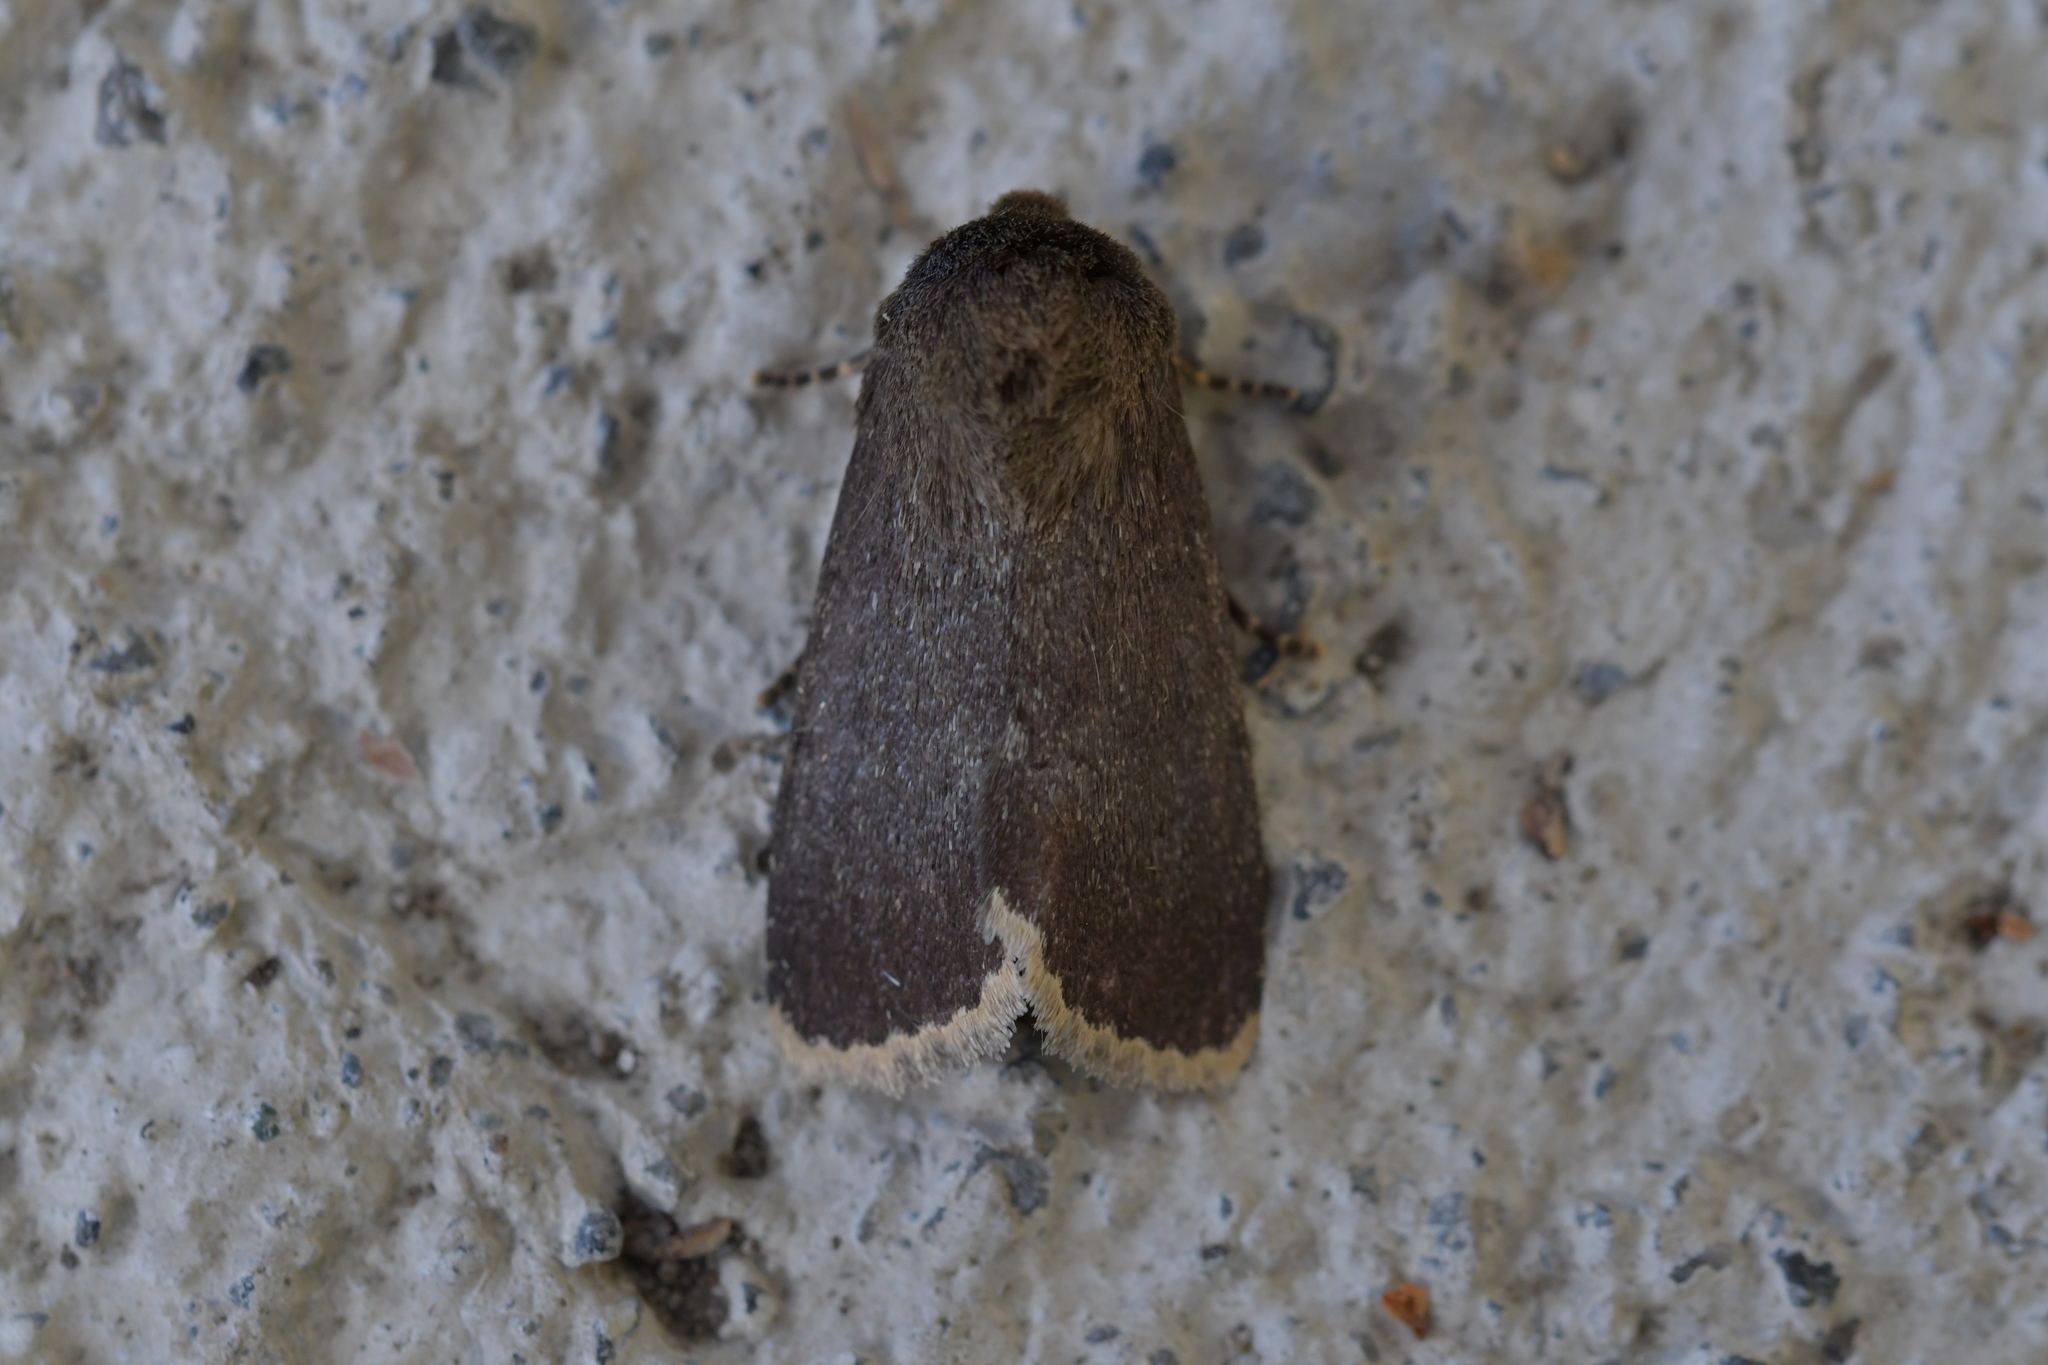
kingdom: Animalia
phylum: Arthropoda
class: Insecta
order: Lepidoptera
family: Noctuidae
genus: Bityla
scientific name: Bityla sericea
